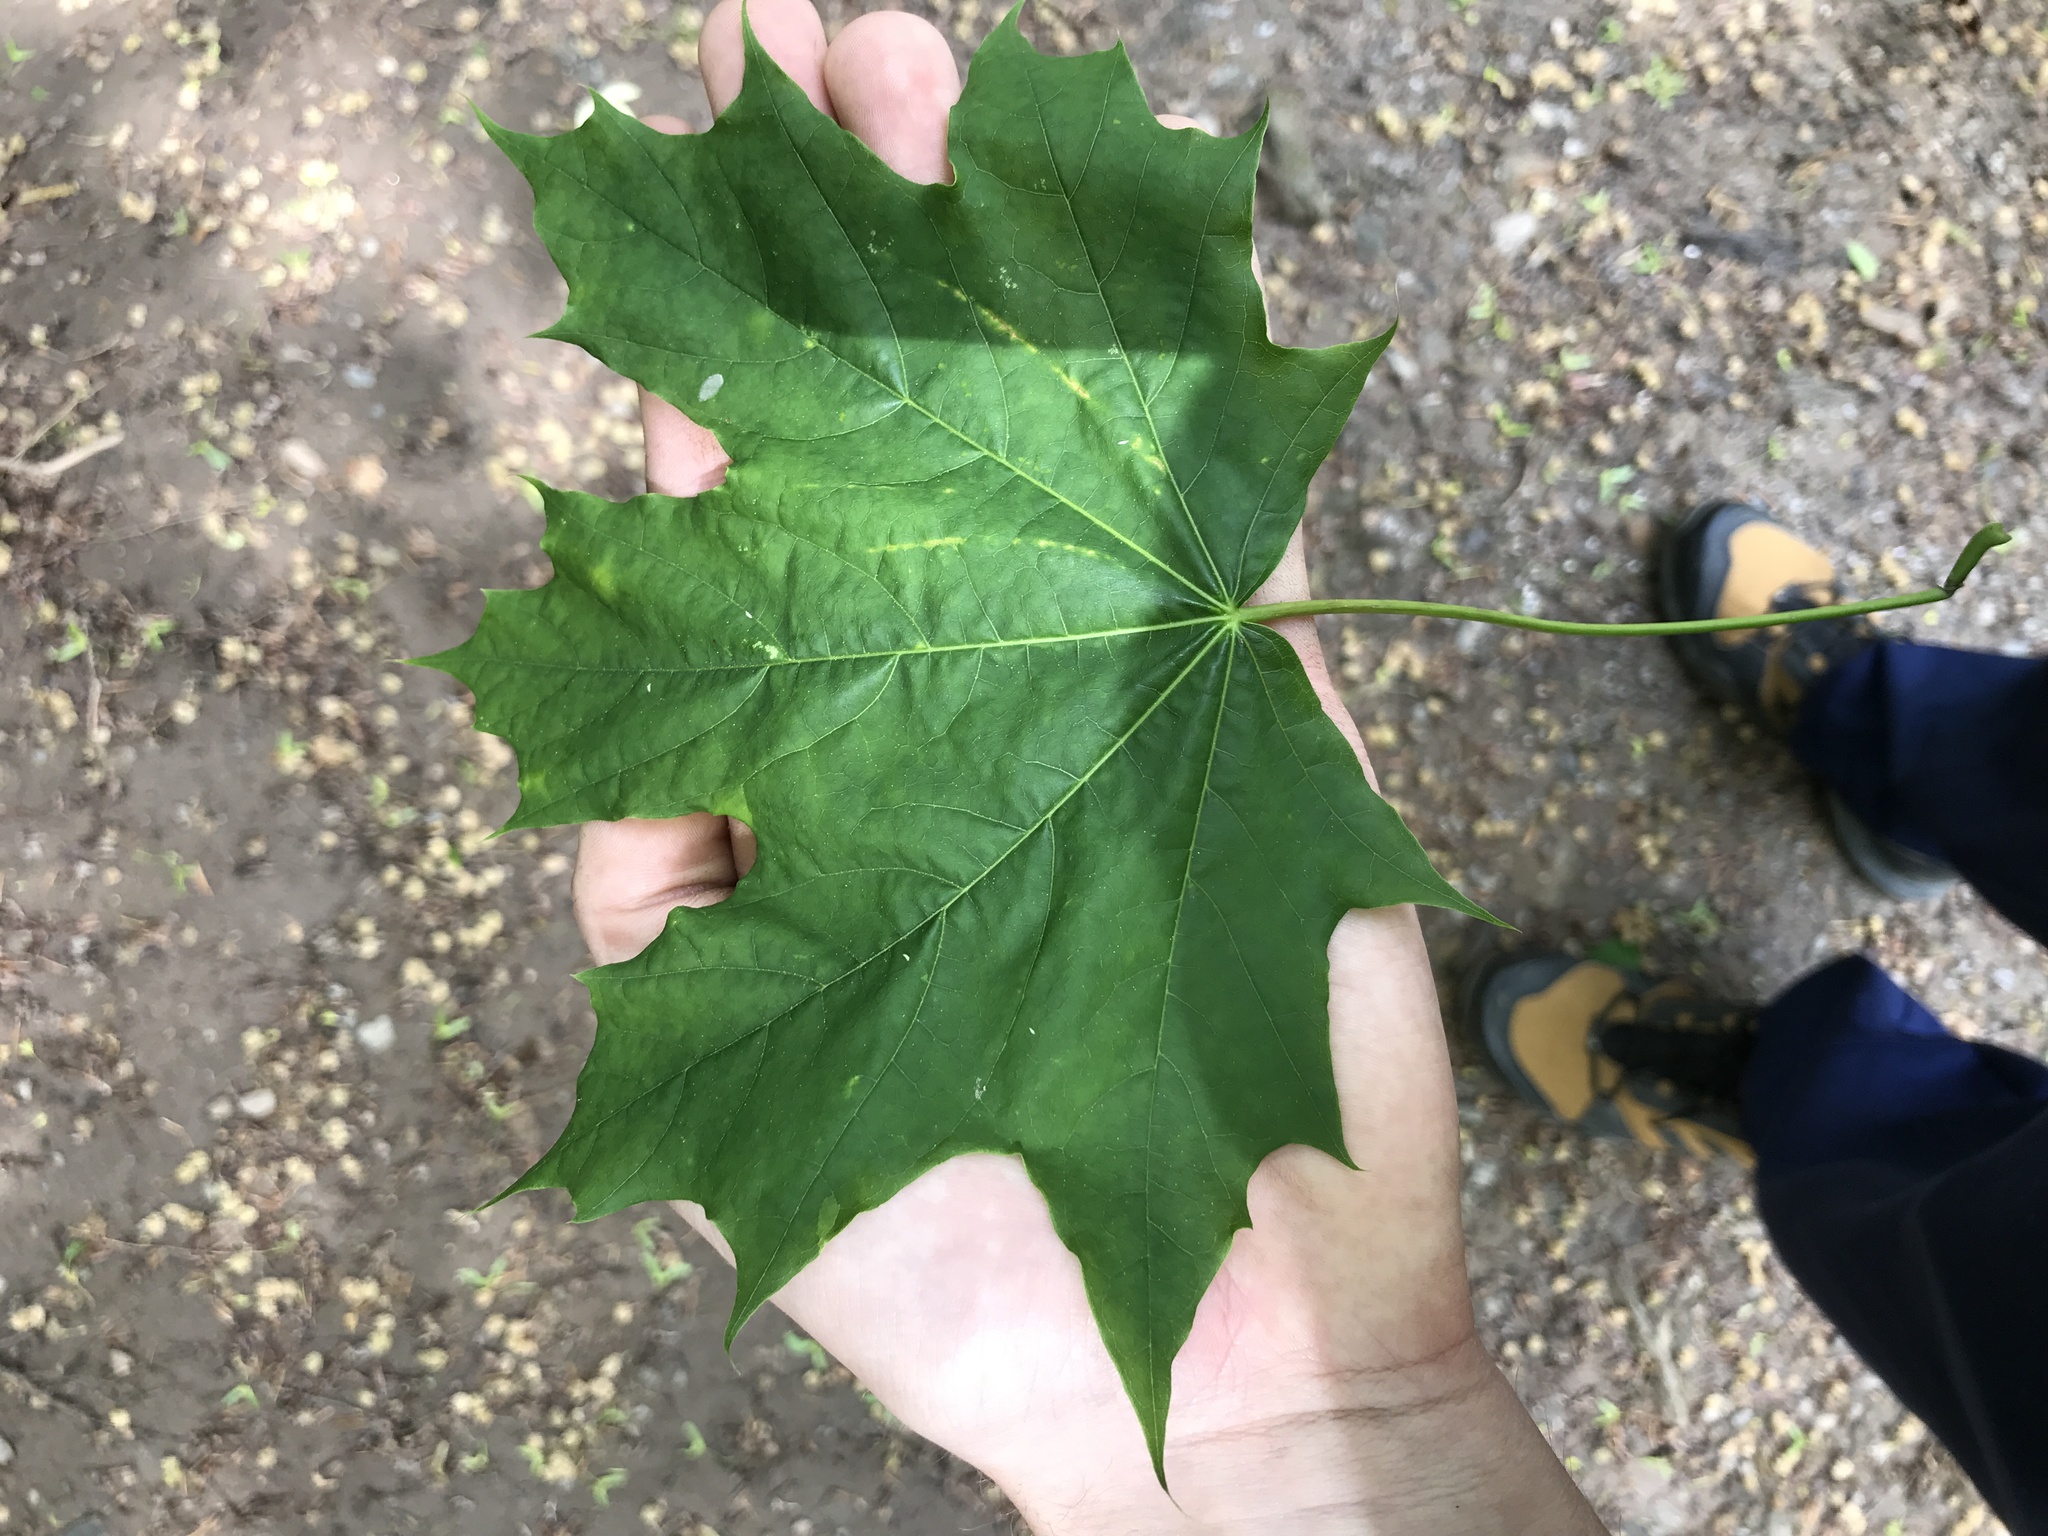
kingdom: Plantae
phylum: Tracheophyta
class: Magnoliopsida
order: Sapindales
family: Sapindaceae
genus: Acer
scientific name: Acer platanoides
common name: Norway maple
